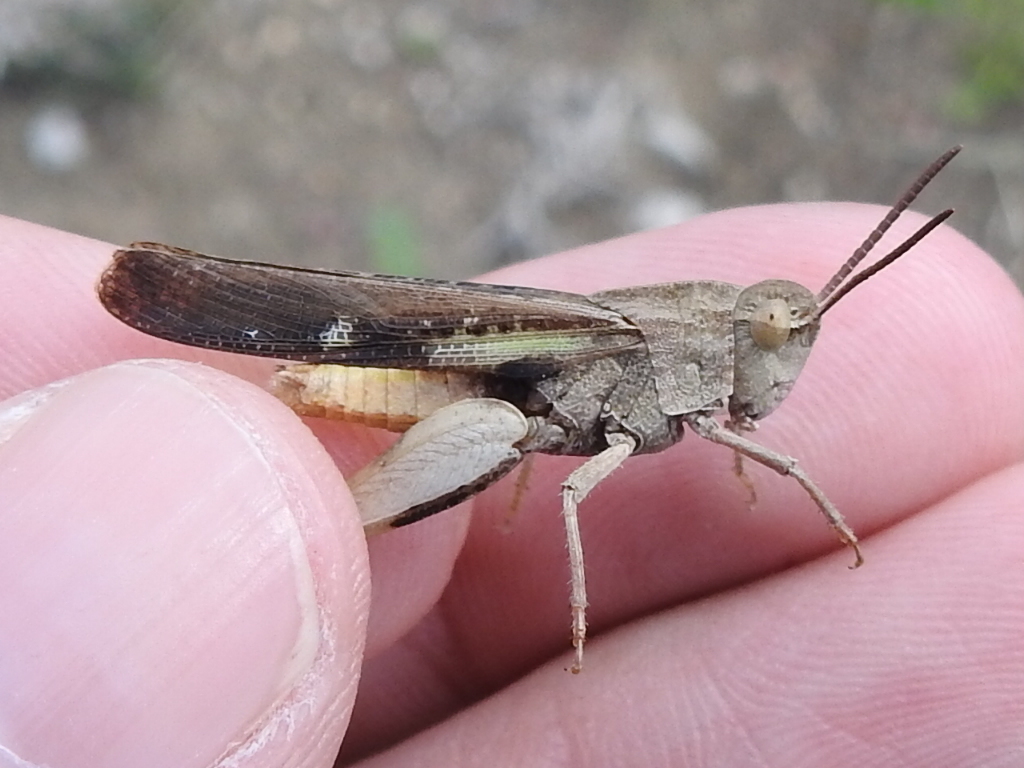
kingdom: Animalia
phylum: Arthropoda
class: Insecta
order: Orthoptera
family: Acrididae
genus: Chortophaga
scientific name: Chortophaga viridifasciata
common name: Green-striped grasshopper
